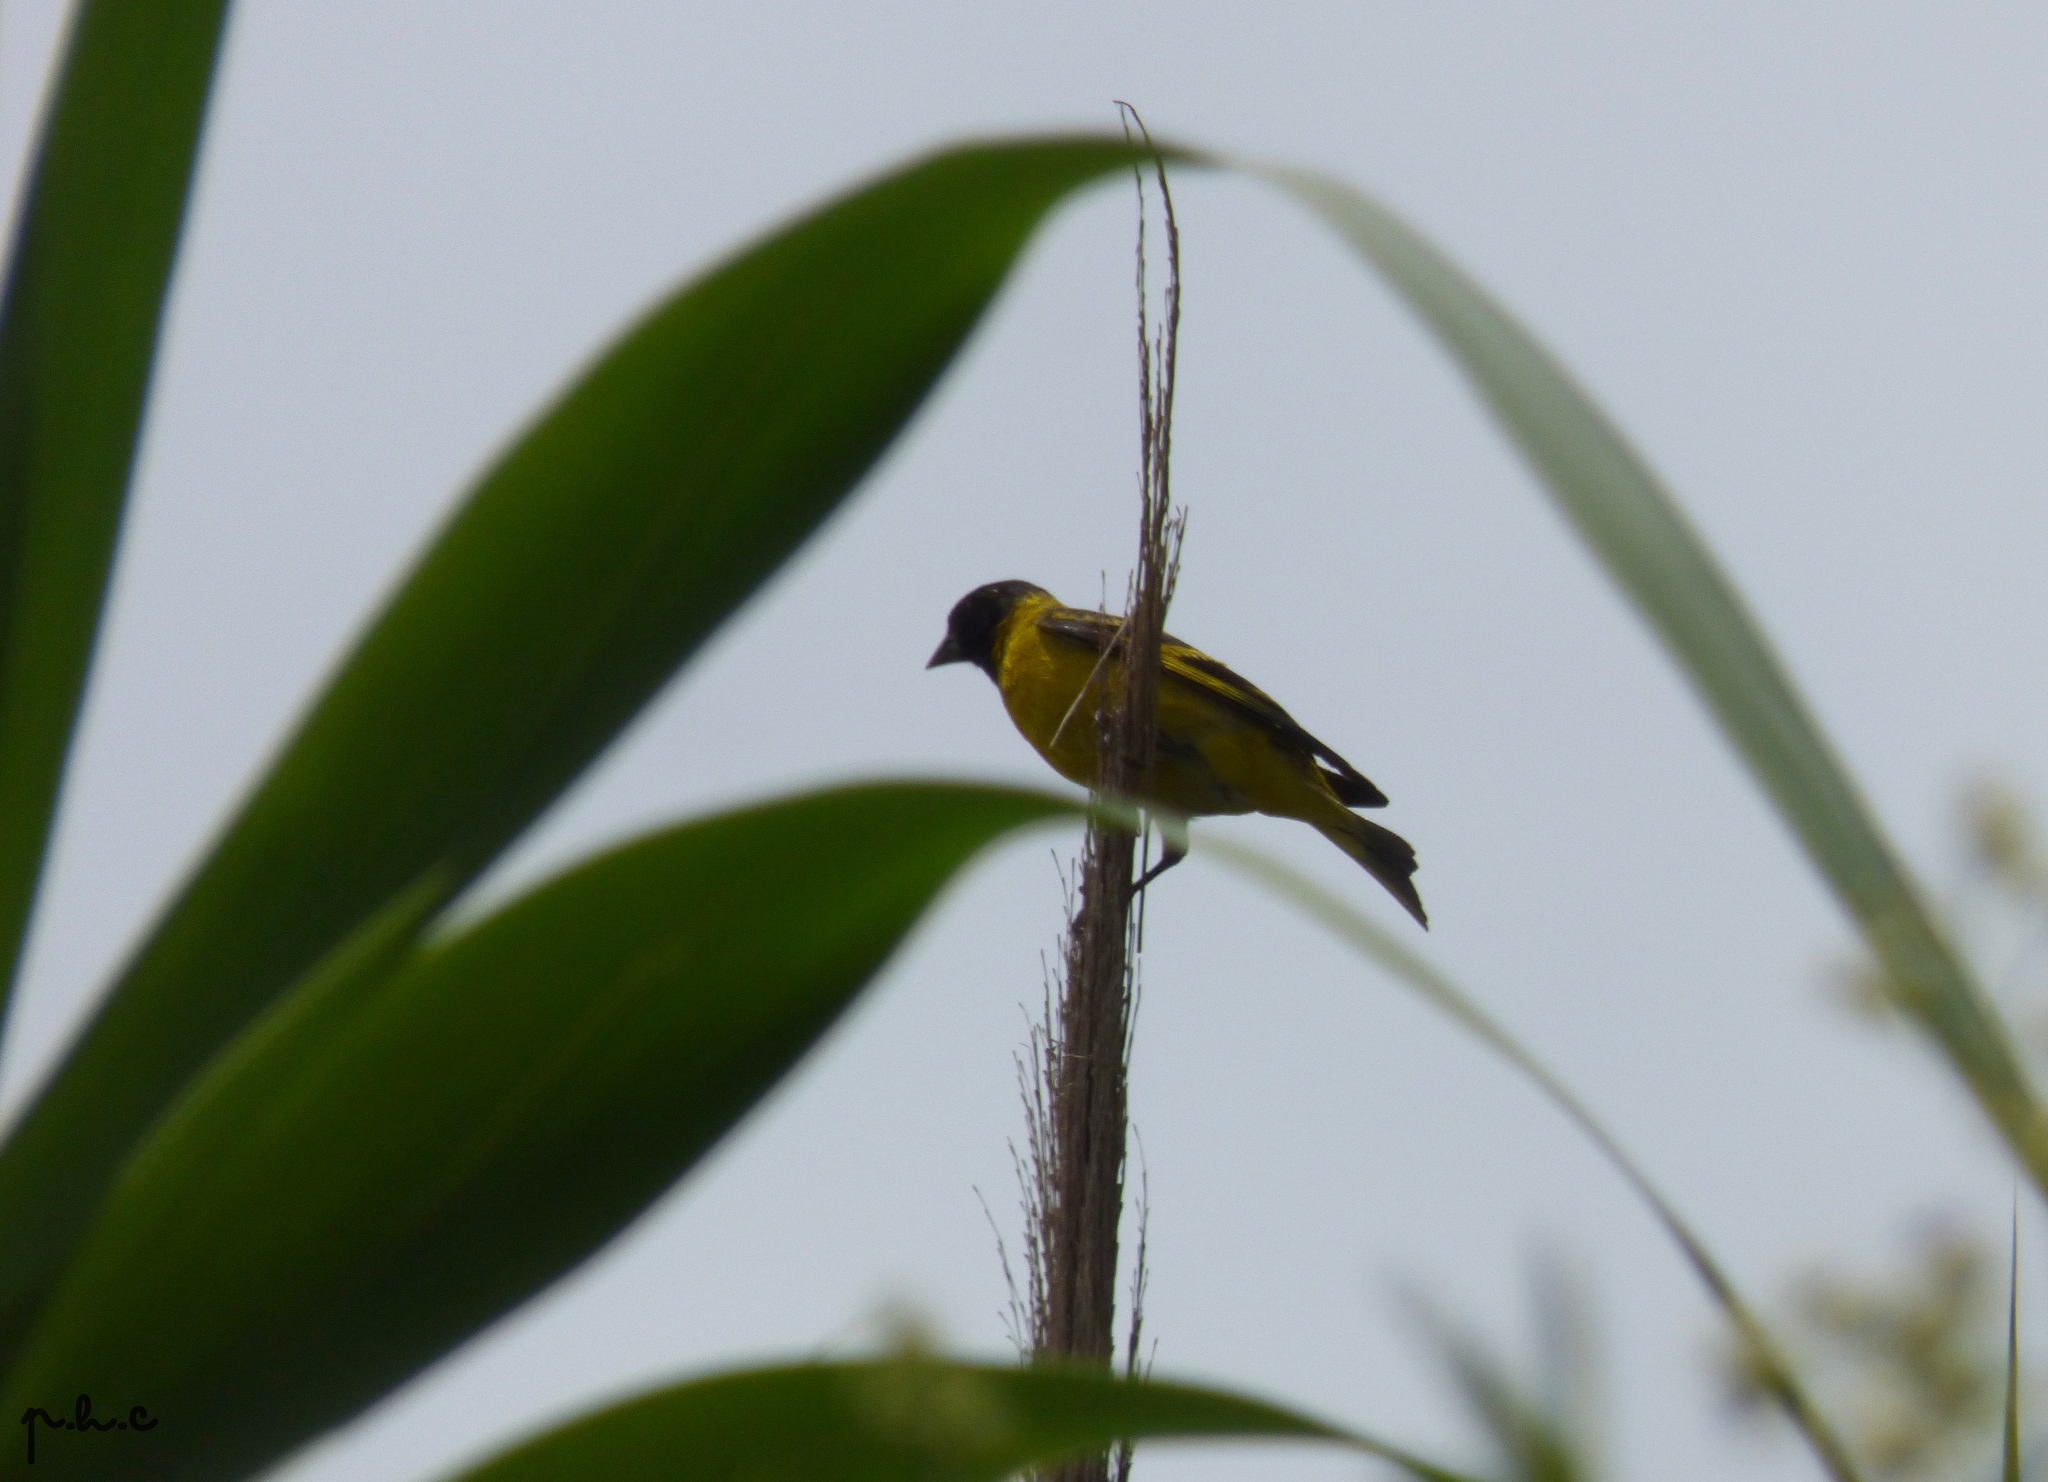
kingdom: Animalia
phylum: Chordata
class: Aves
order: Passeriformes
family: Fringillidae
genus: Spinus
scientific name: Spinus magellanicus
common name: Hooded siskin
